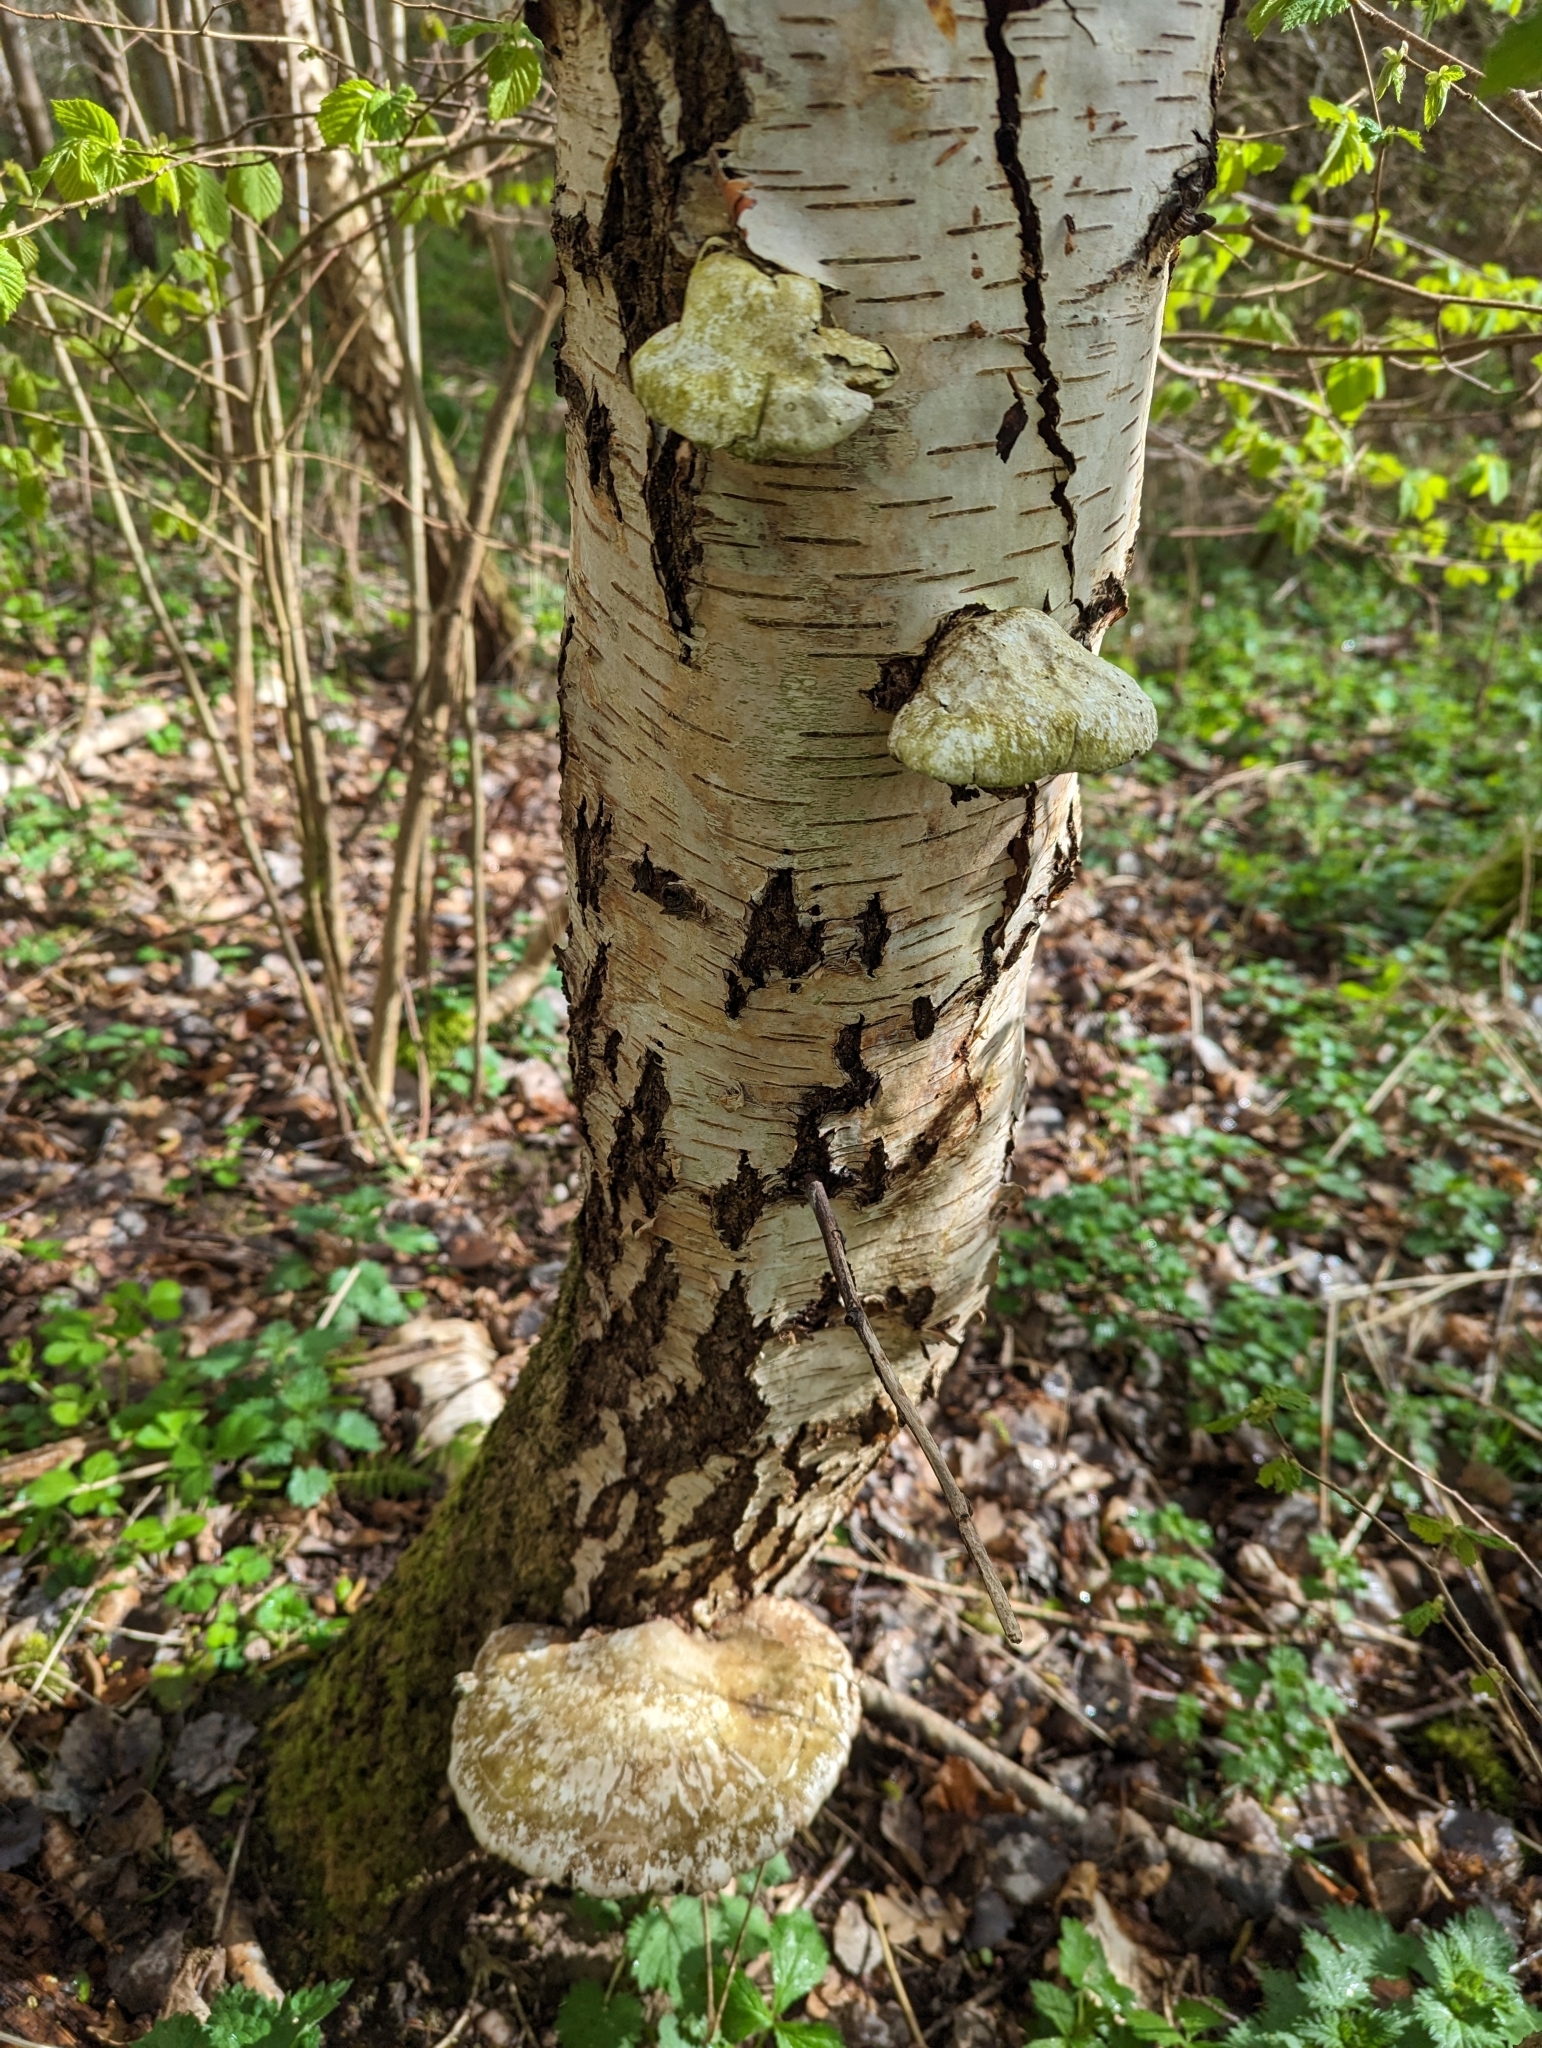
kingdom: Fungi
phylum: Basidiomycota
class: Agaricomycetes
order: Polyporales
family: Fomitopsidaceae
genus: Fomitopsis
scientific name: Fomitopsis betulina
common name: Birch polypore
